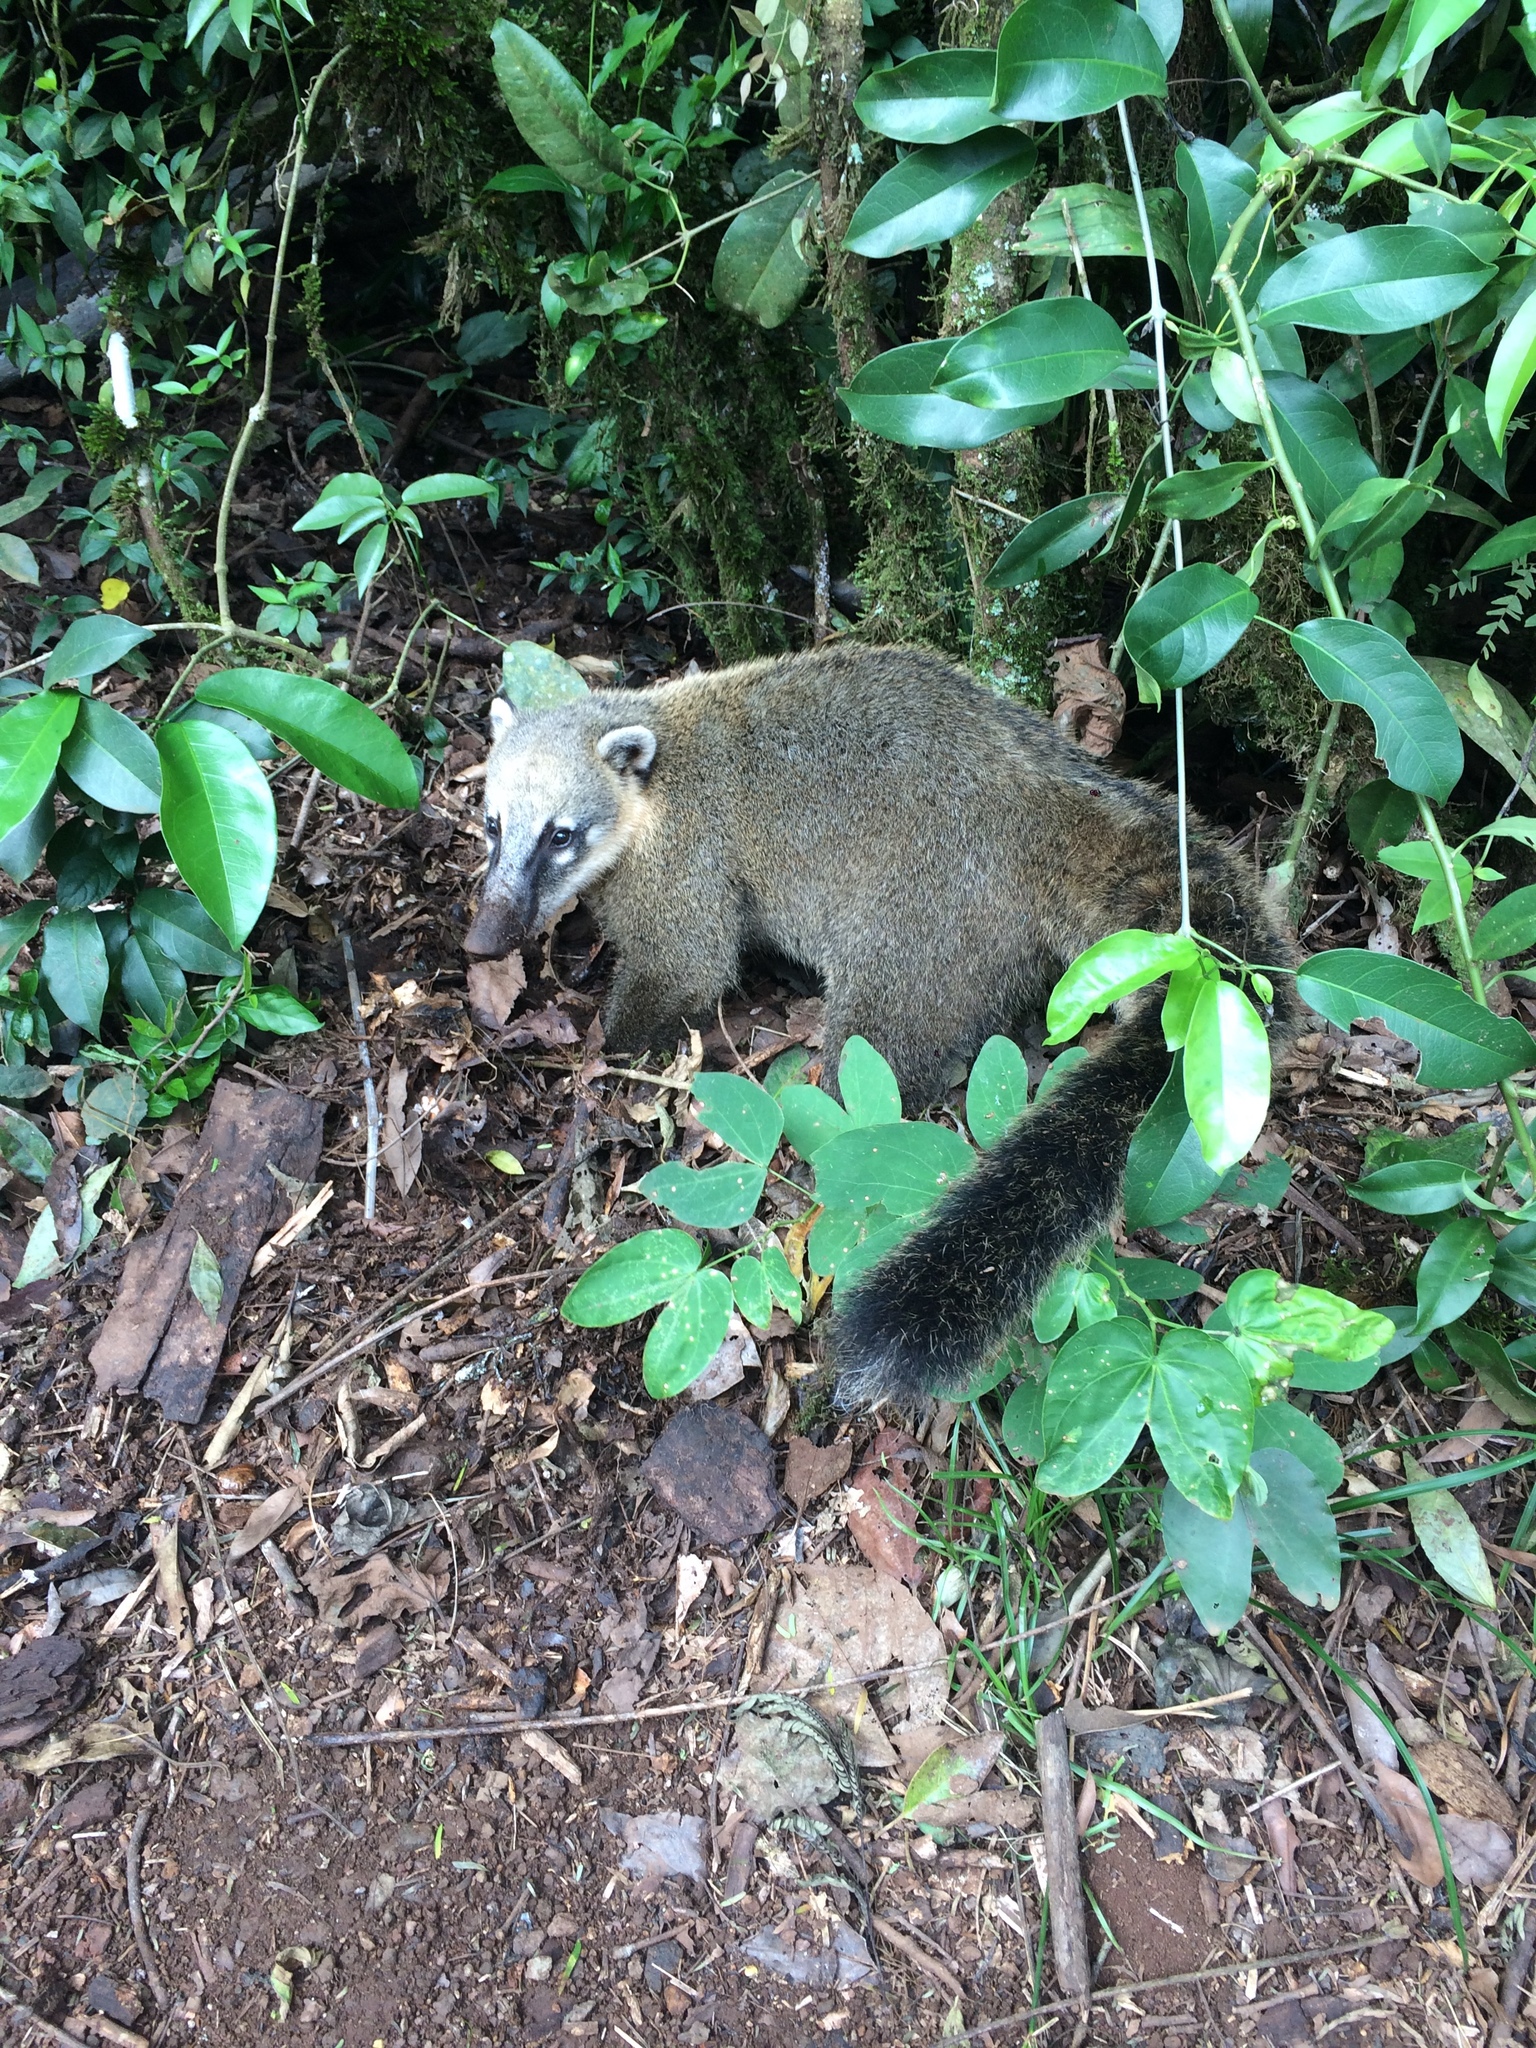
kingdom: Animalia
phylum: Chordata
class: Mammalia
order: Carnivora
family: Procyonidae
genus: Nasua
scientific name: Nasua nasua
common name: South american coati
